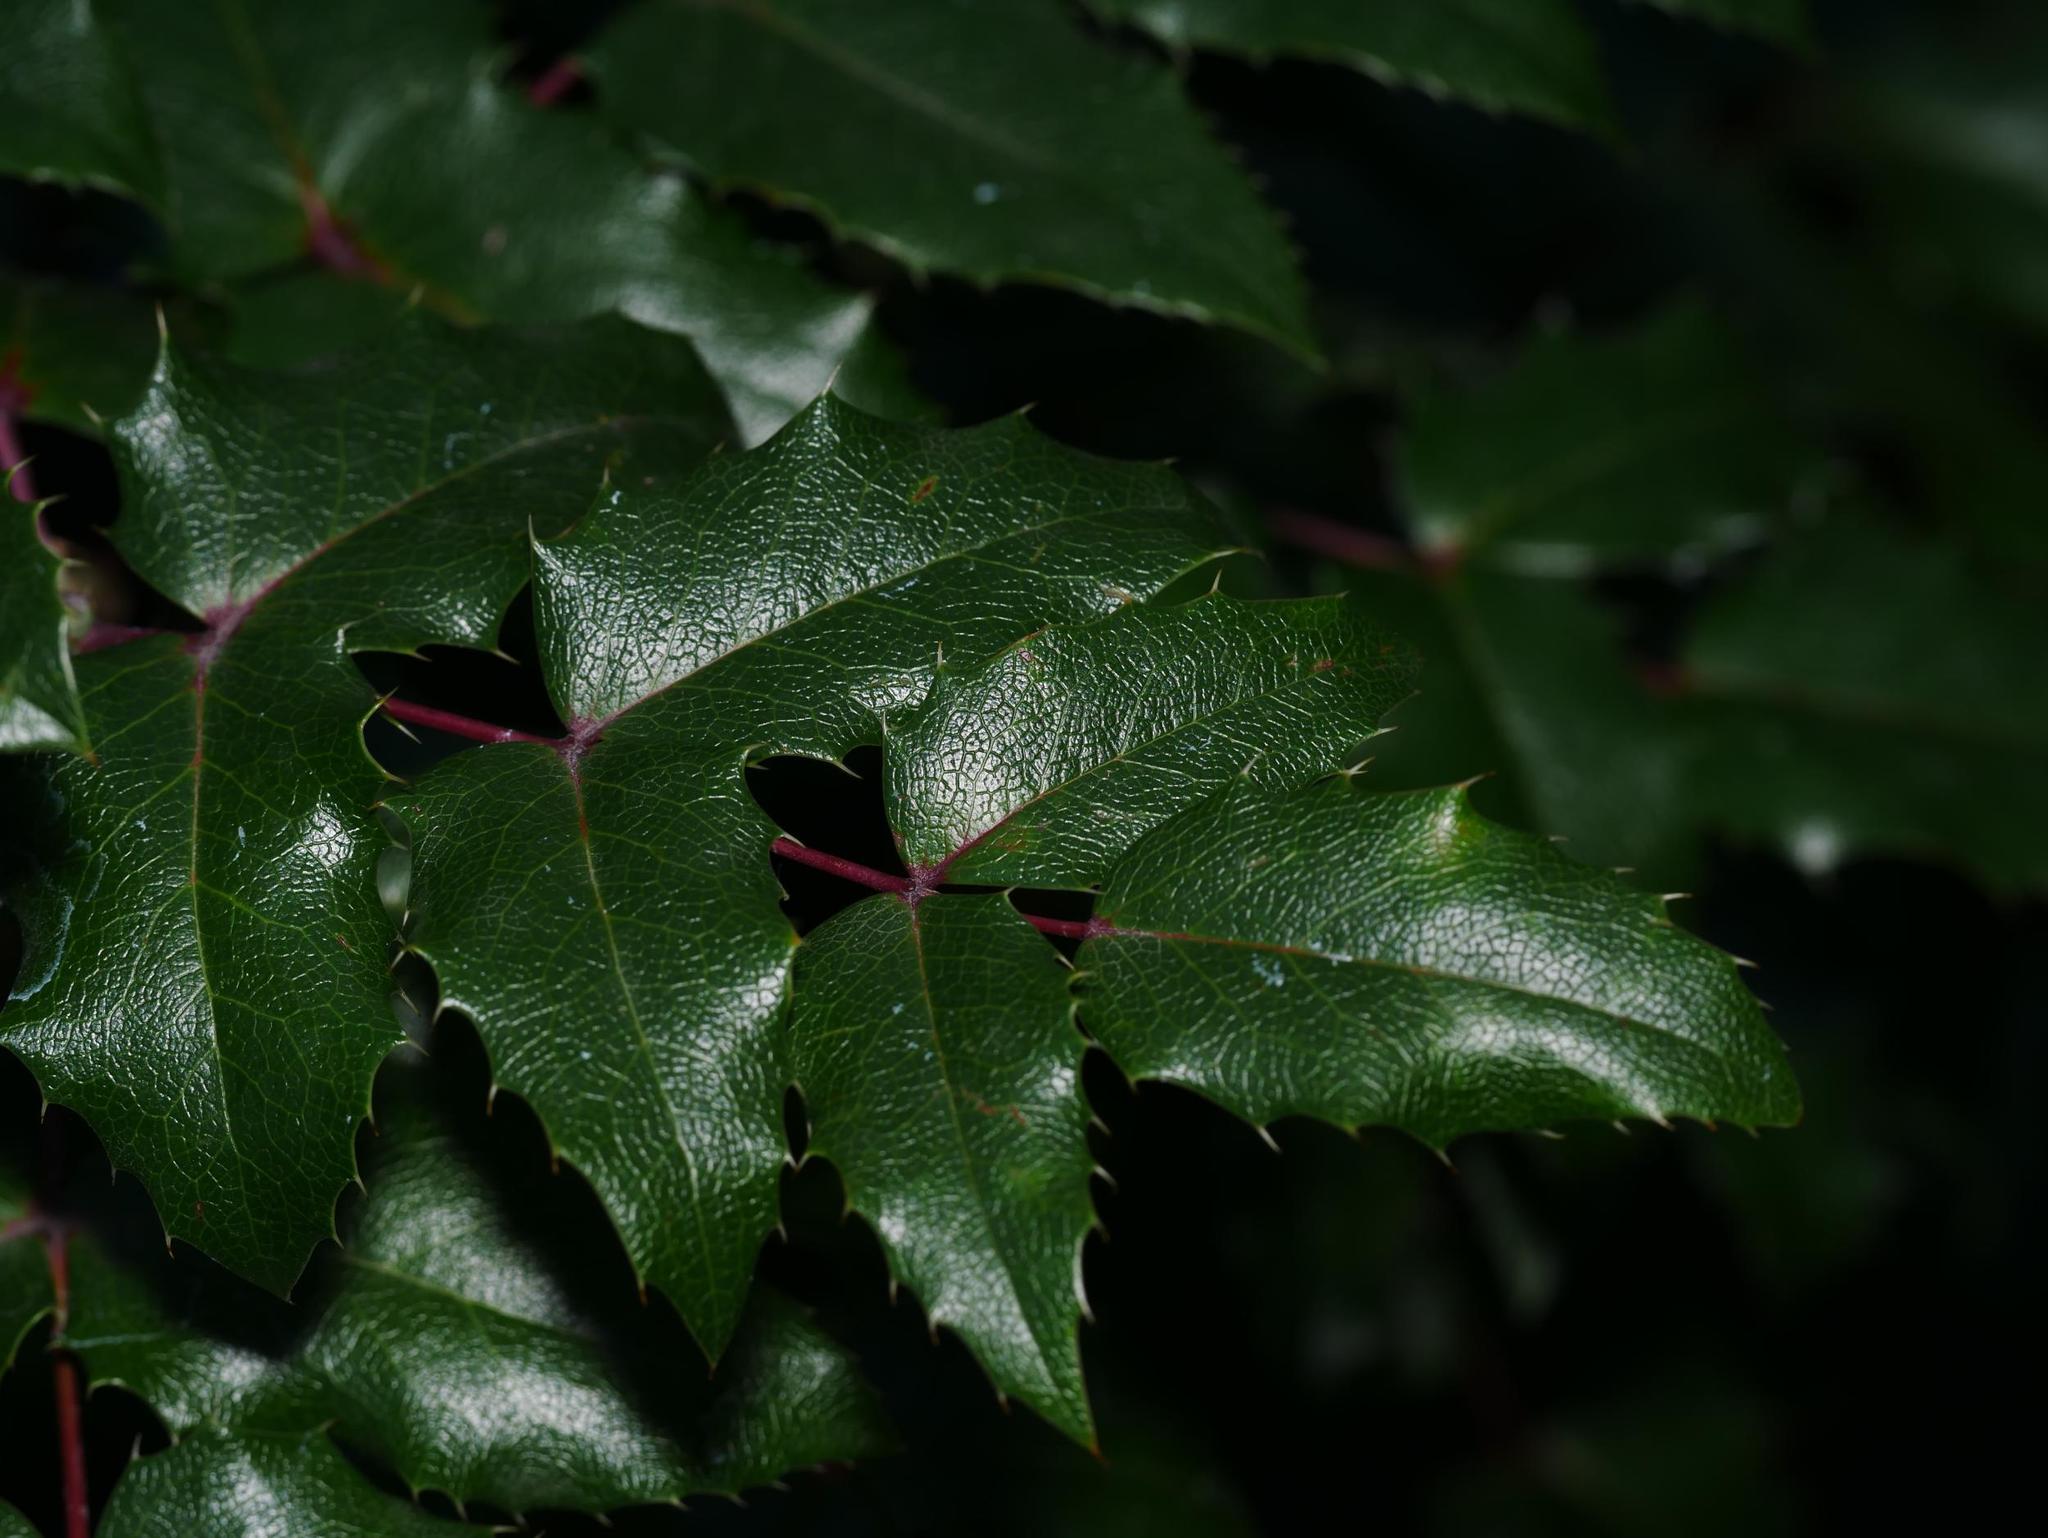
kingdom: Plantae
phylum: Tracheophyta
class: Magnoliopsida
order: Ranunculales
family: Berberidaceae
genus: Mahonia
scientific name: Mahonia aquifolium
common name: Oregon-grape
